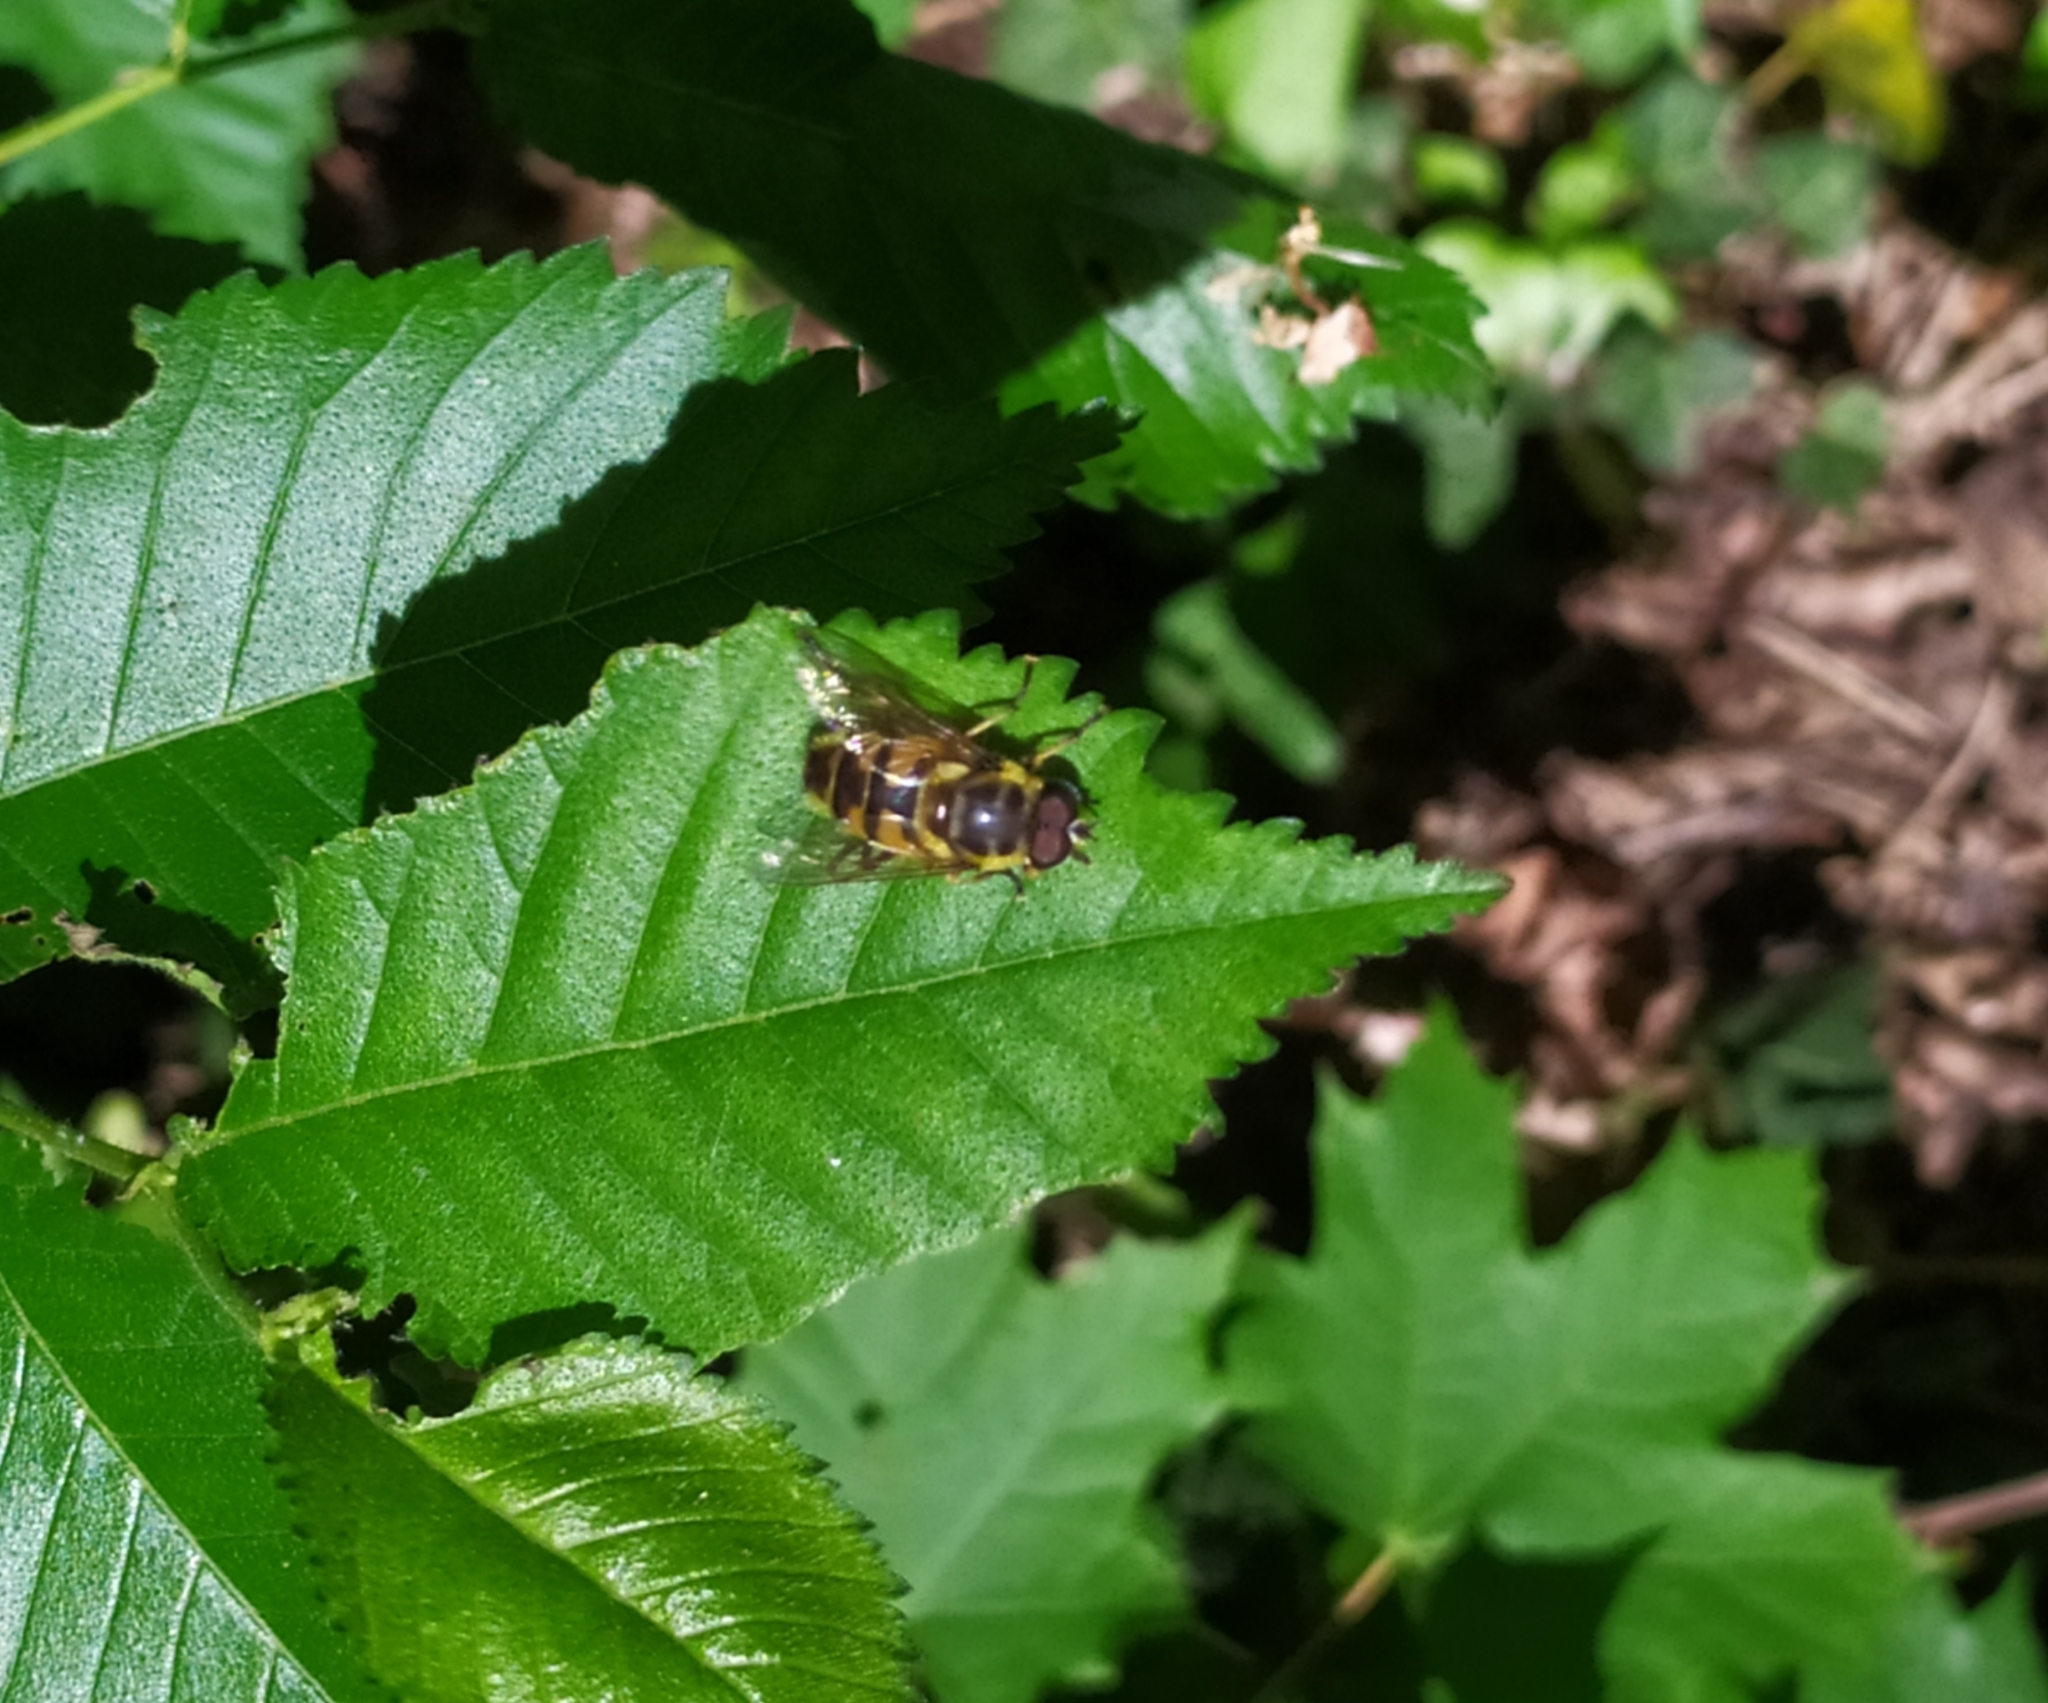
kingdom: Animalia
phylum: Arthropoda
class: Insecta
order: Diptera
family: Syrphidae
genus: Myathropa
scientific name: Myathropa florea
